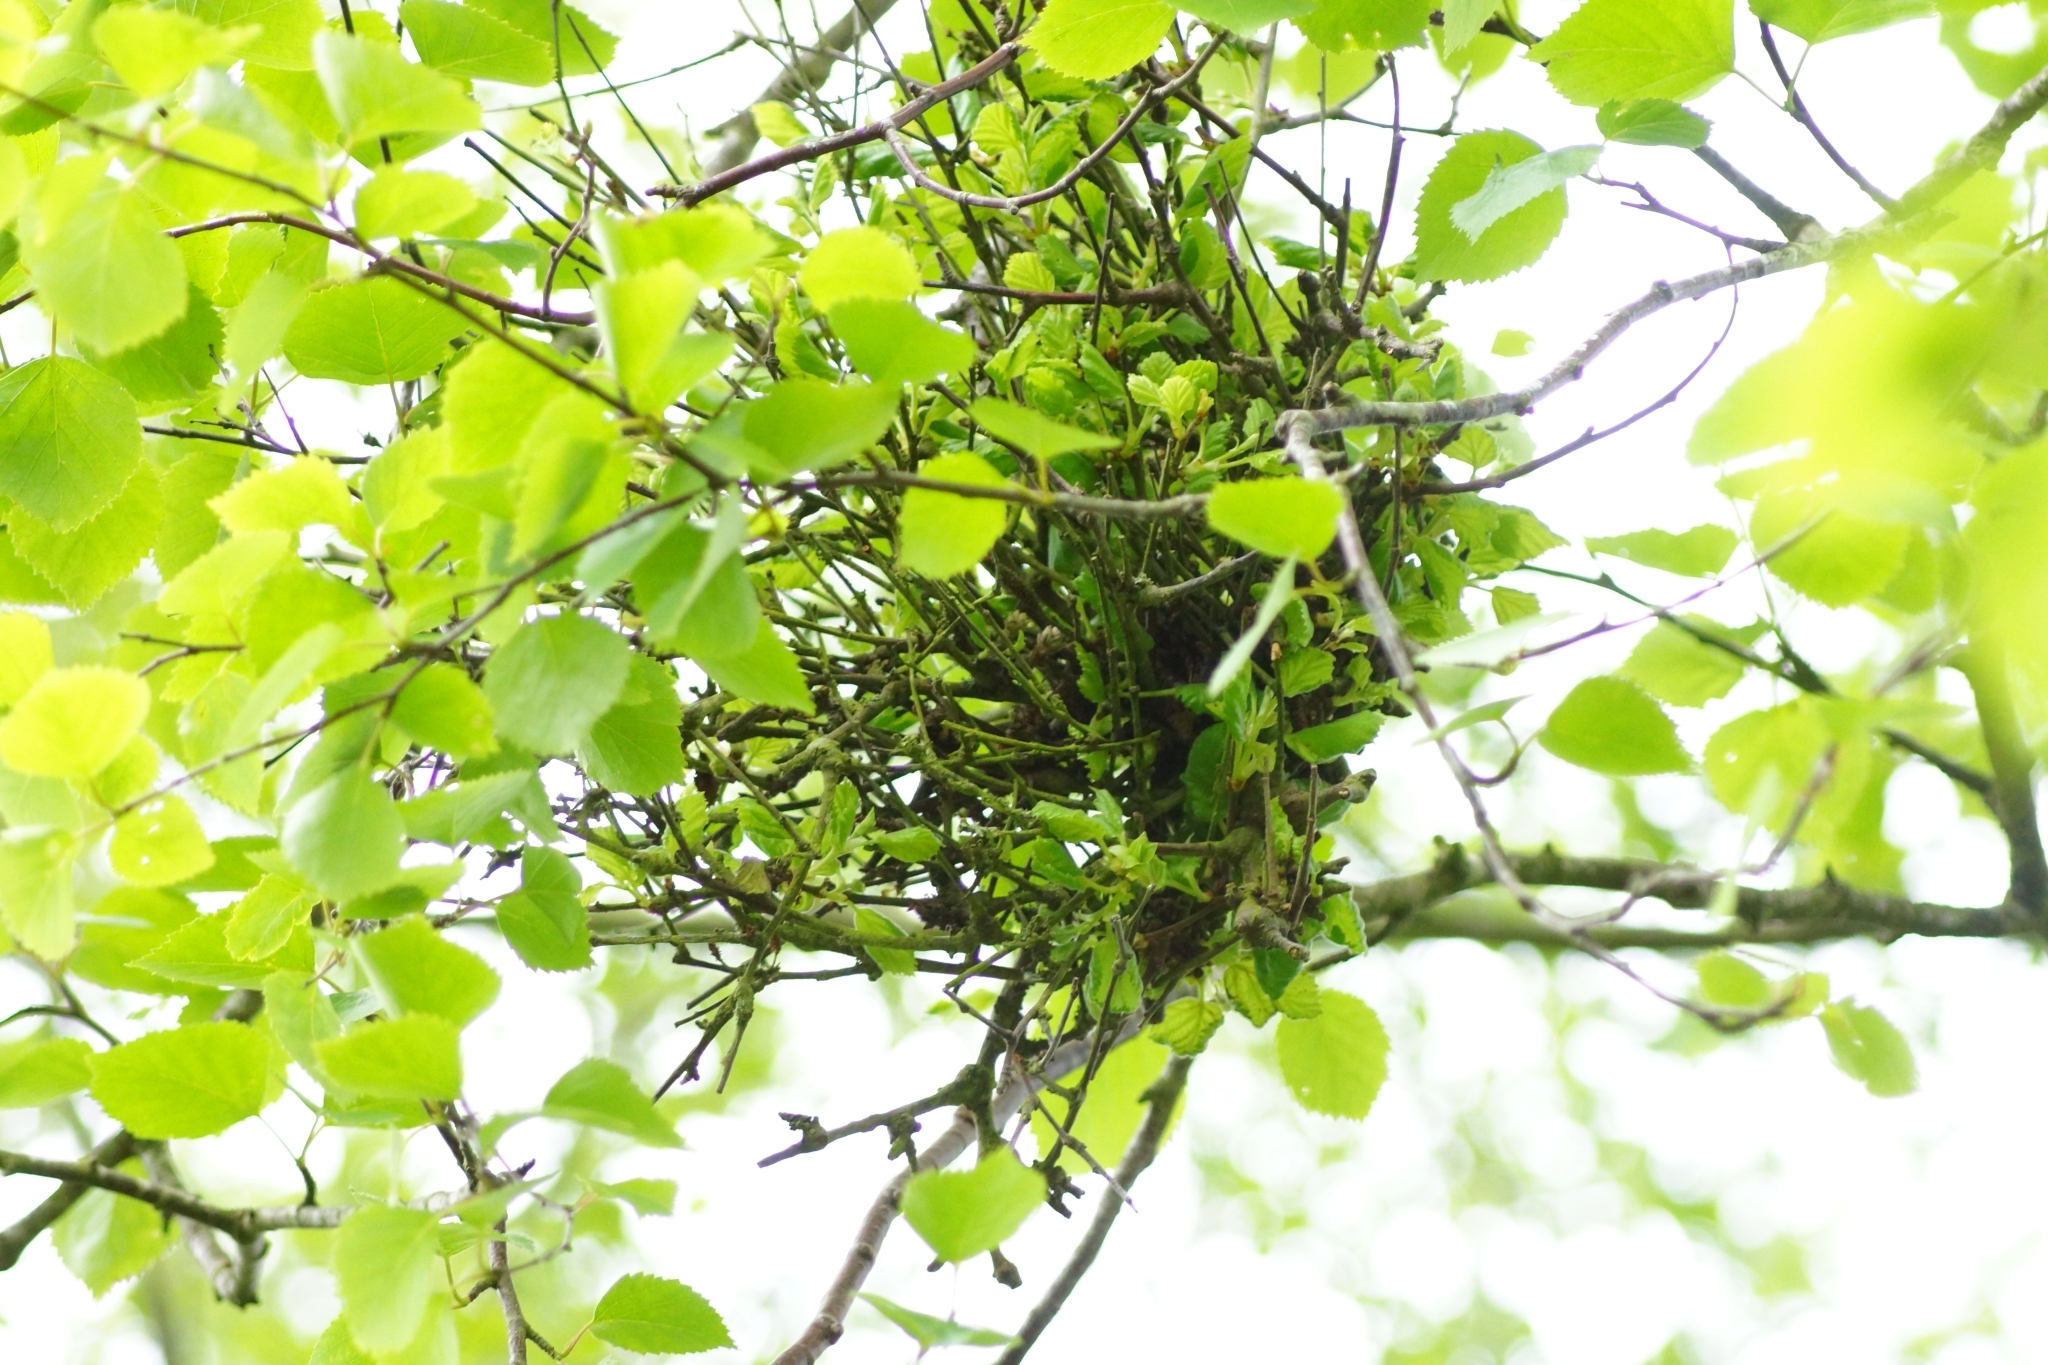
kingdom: Fungi
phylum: Ascomycota
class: Taphrinomycetes
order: Taphrinales
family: Taphrinaceae
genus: Taphrina
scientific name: Taphrina betulina
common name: Birch besom
